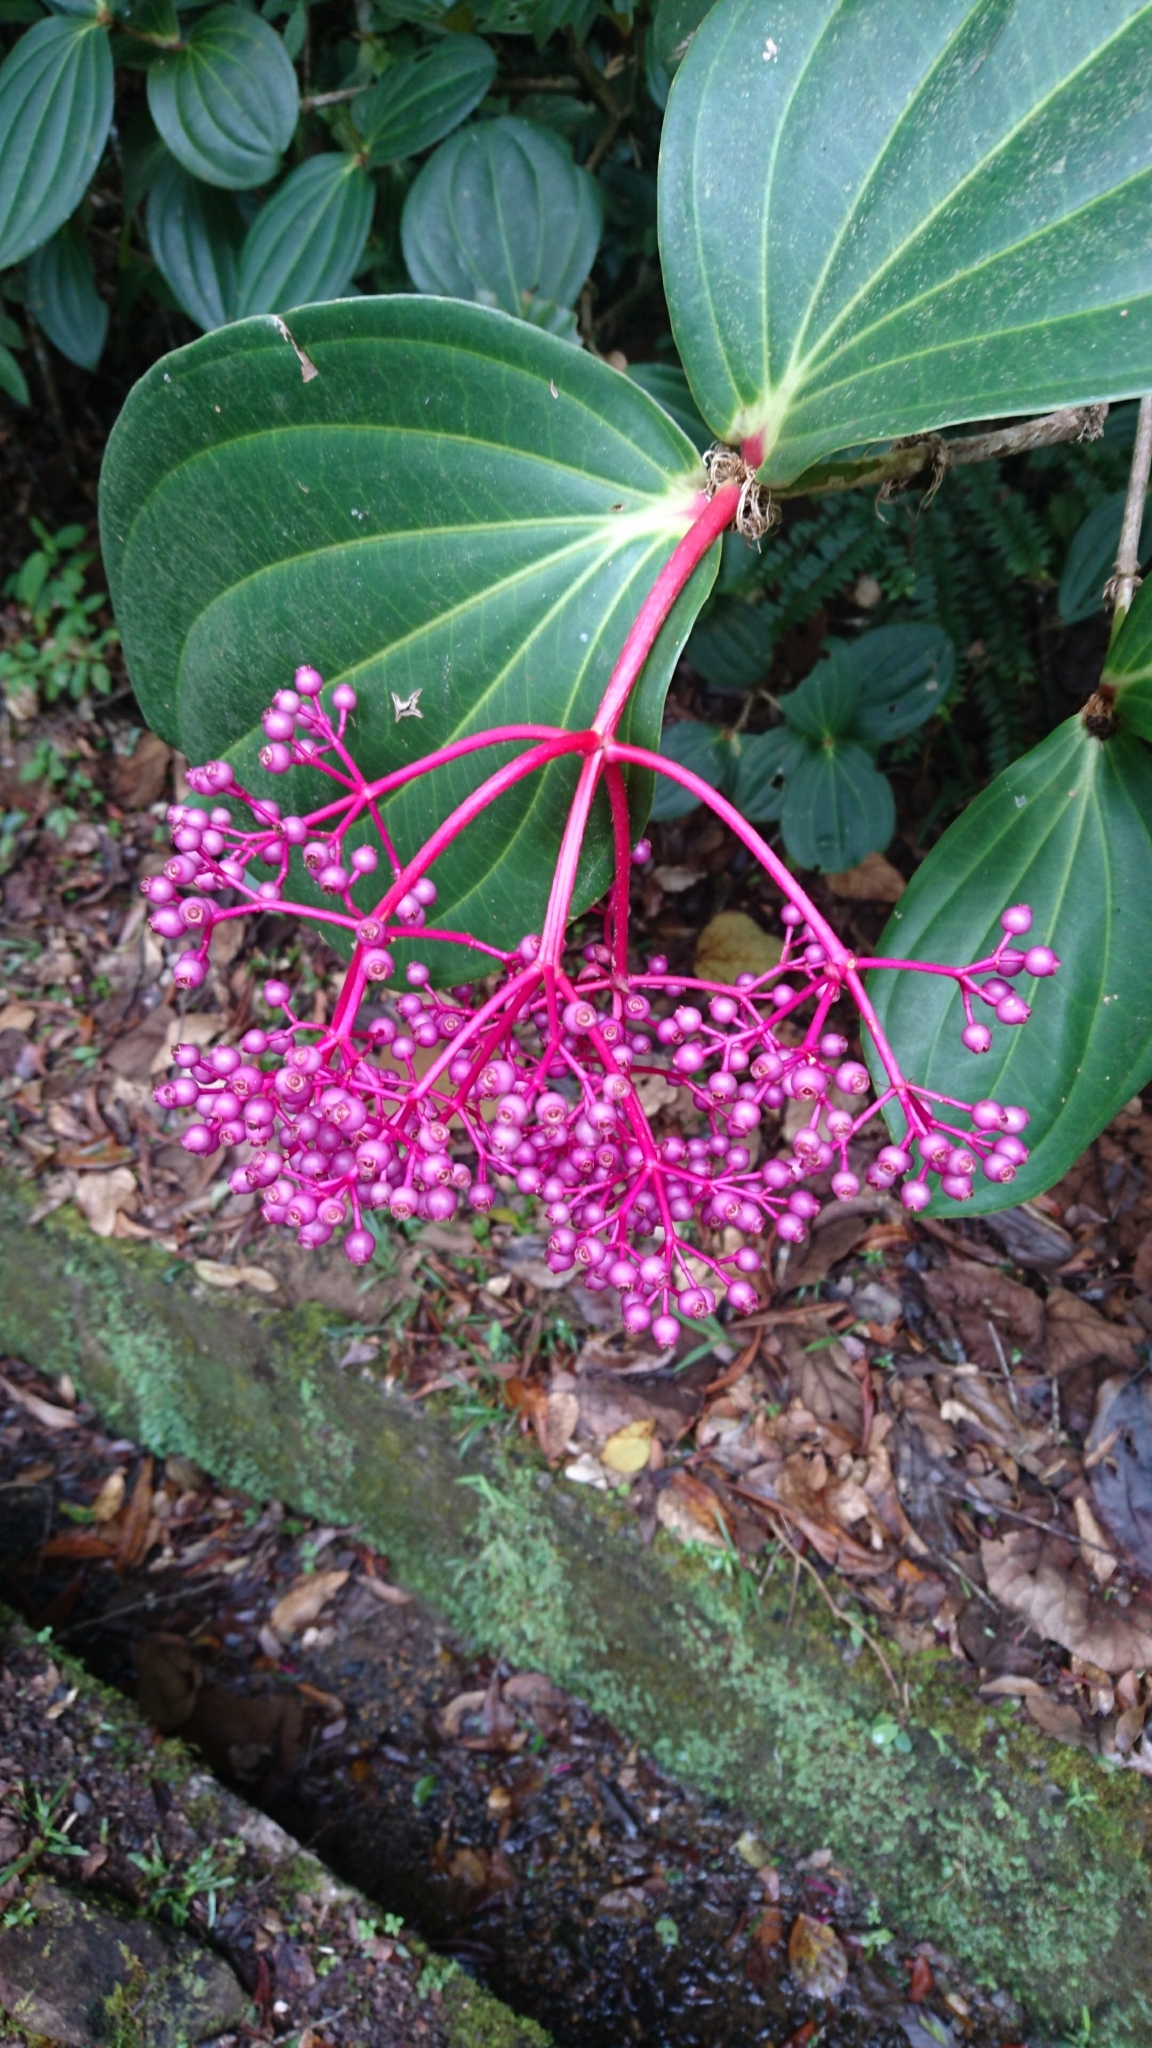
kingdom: Plantae
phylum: Tracheophyta
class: Magnoliopsida
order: Myrtales
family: Melastomataceae
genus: Medinilla
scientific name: Medinilla speciosa
